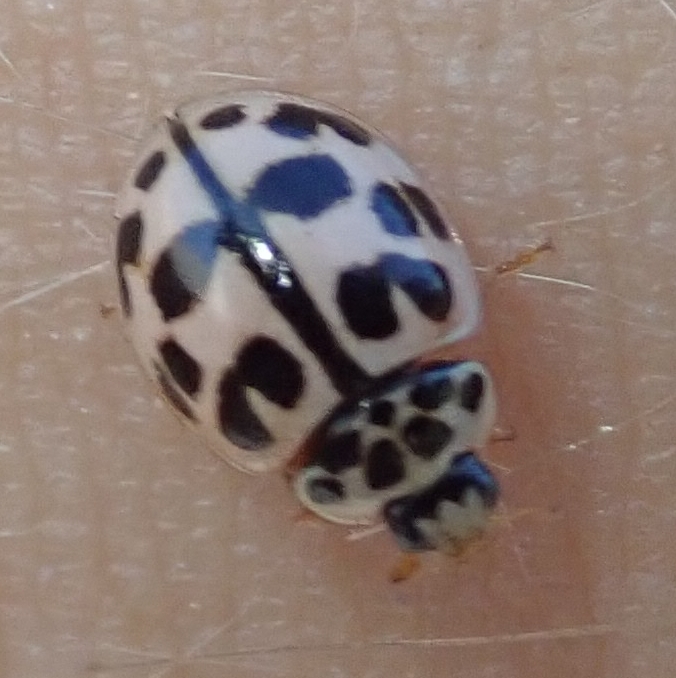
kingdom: Animalia
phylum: Arthropoda
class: Insecta
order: Coleoptera
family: Coccinellidae
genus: Oenopia
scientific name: Oenopia conglobata
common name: Ladybird beetle
